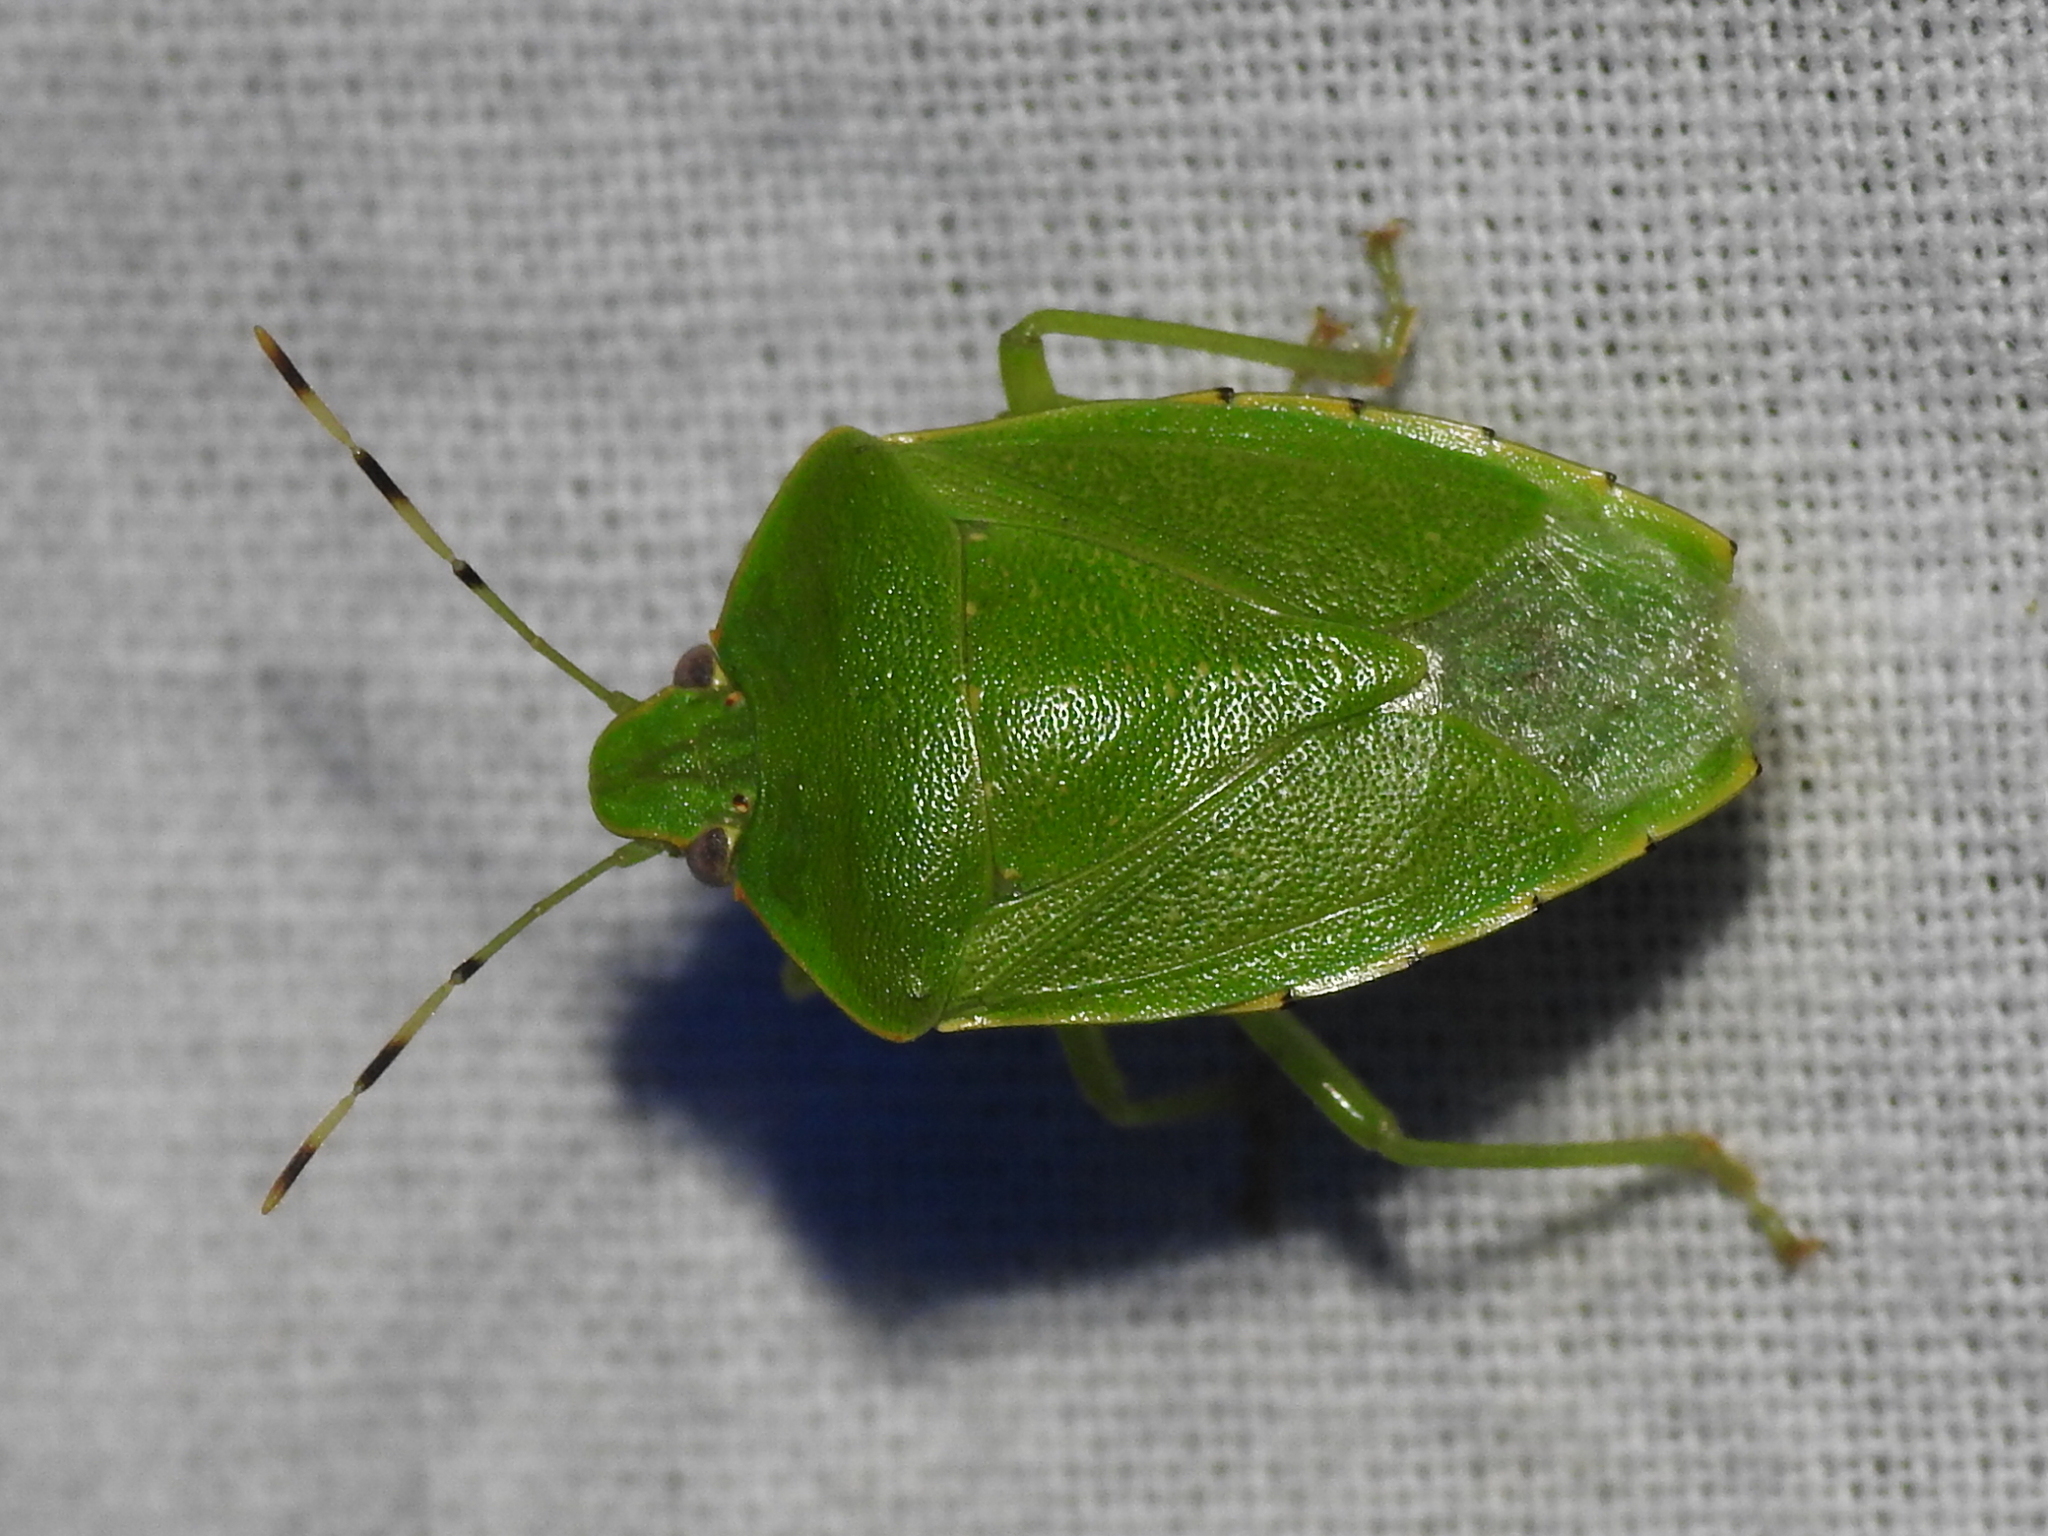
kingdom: Animalia
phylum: Arthropoda
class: Insecta
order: Hemiptera
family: Pentatomidae
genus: Chinavia
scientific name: Chinavia hilaris
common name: Green stink bug
